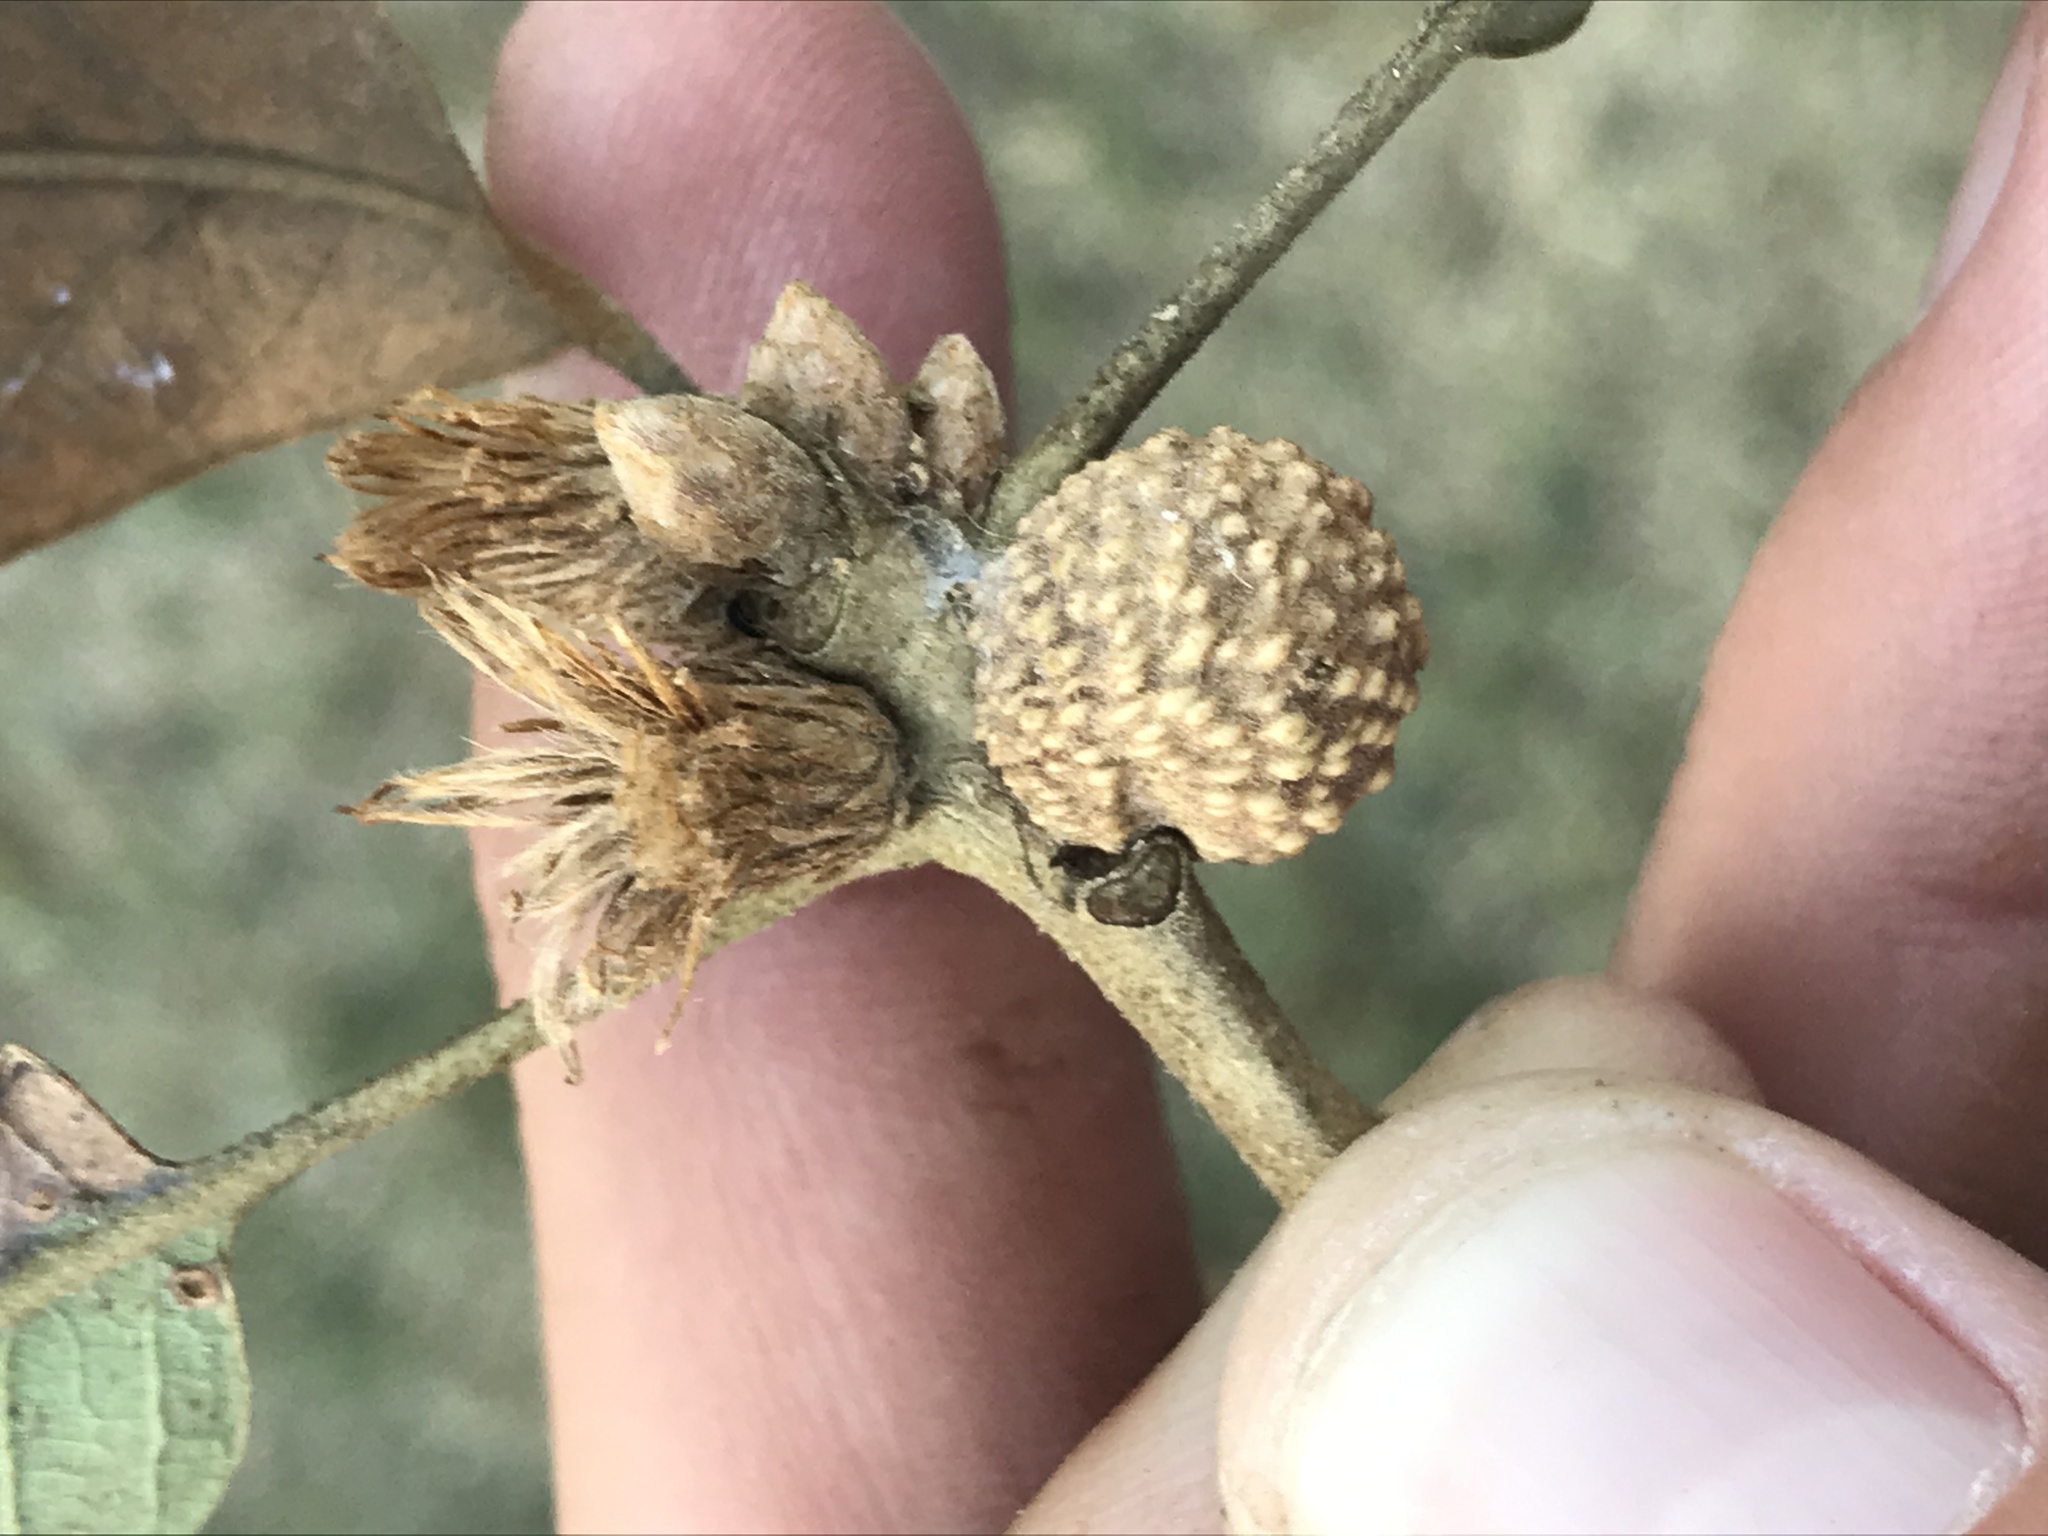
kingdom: Animalia
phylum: Arthropoda
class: Insecta
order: Hymenoptera
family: Cynipidae
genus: Disholcaspis
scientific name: Disholcaspis
